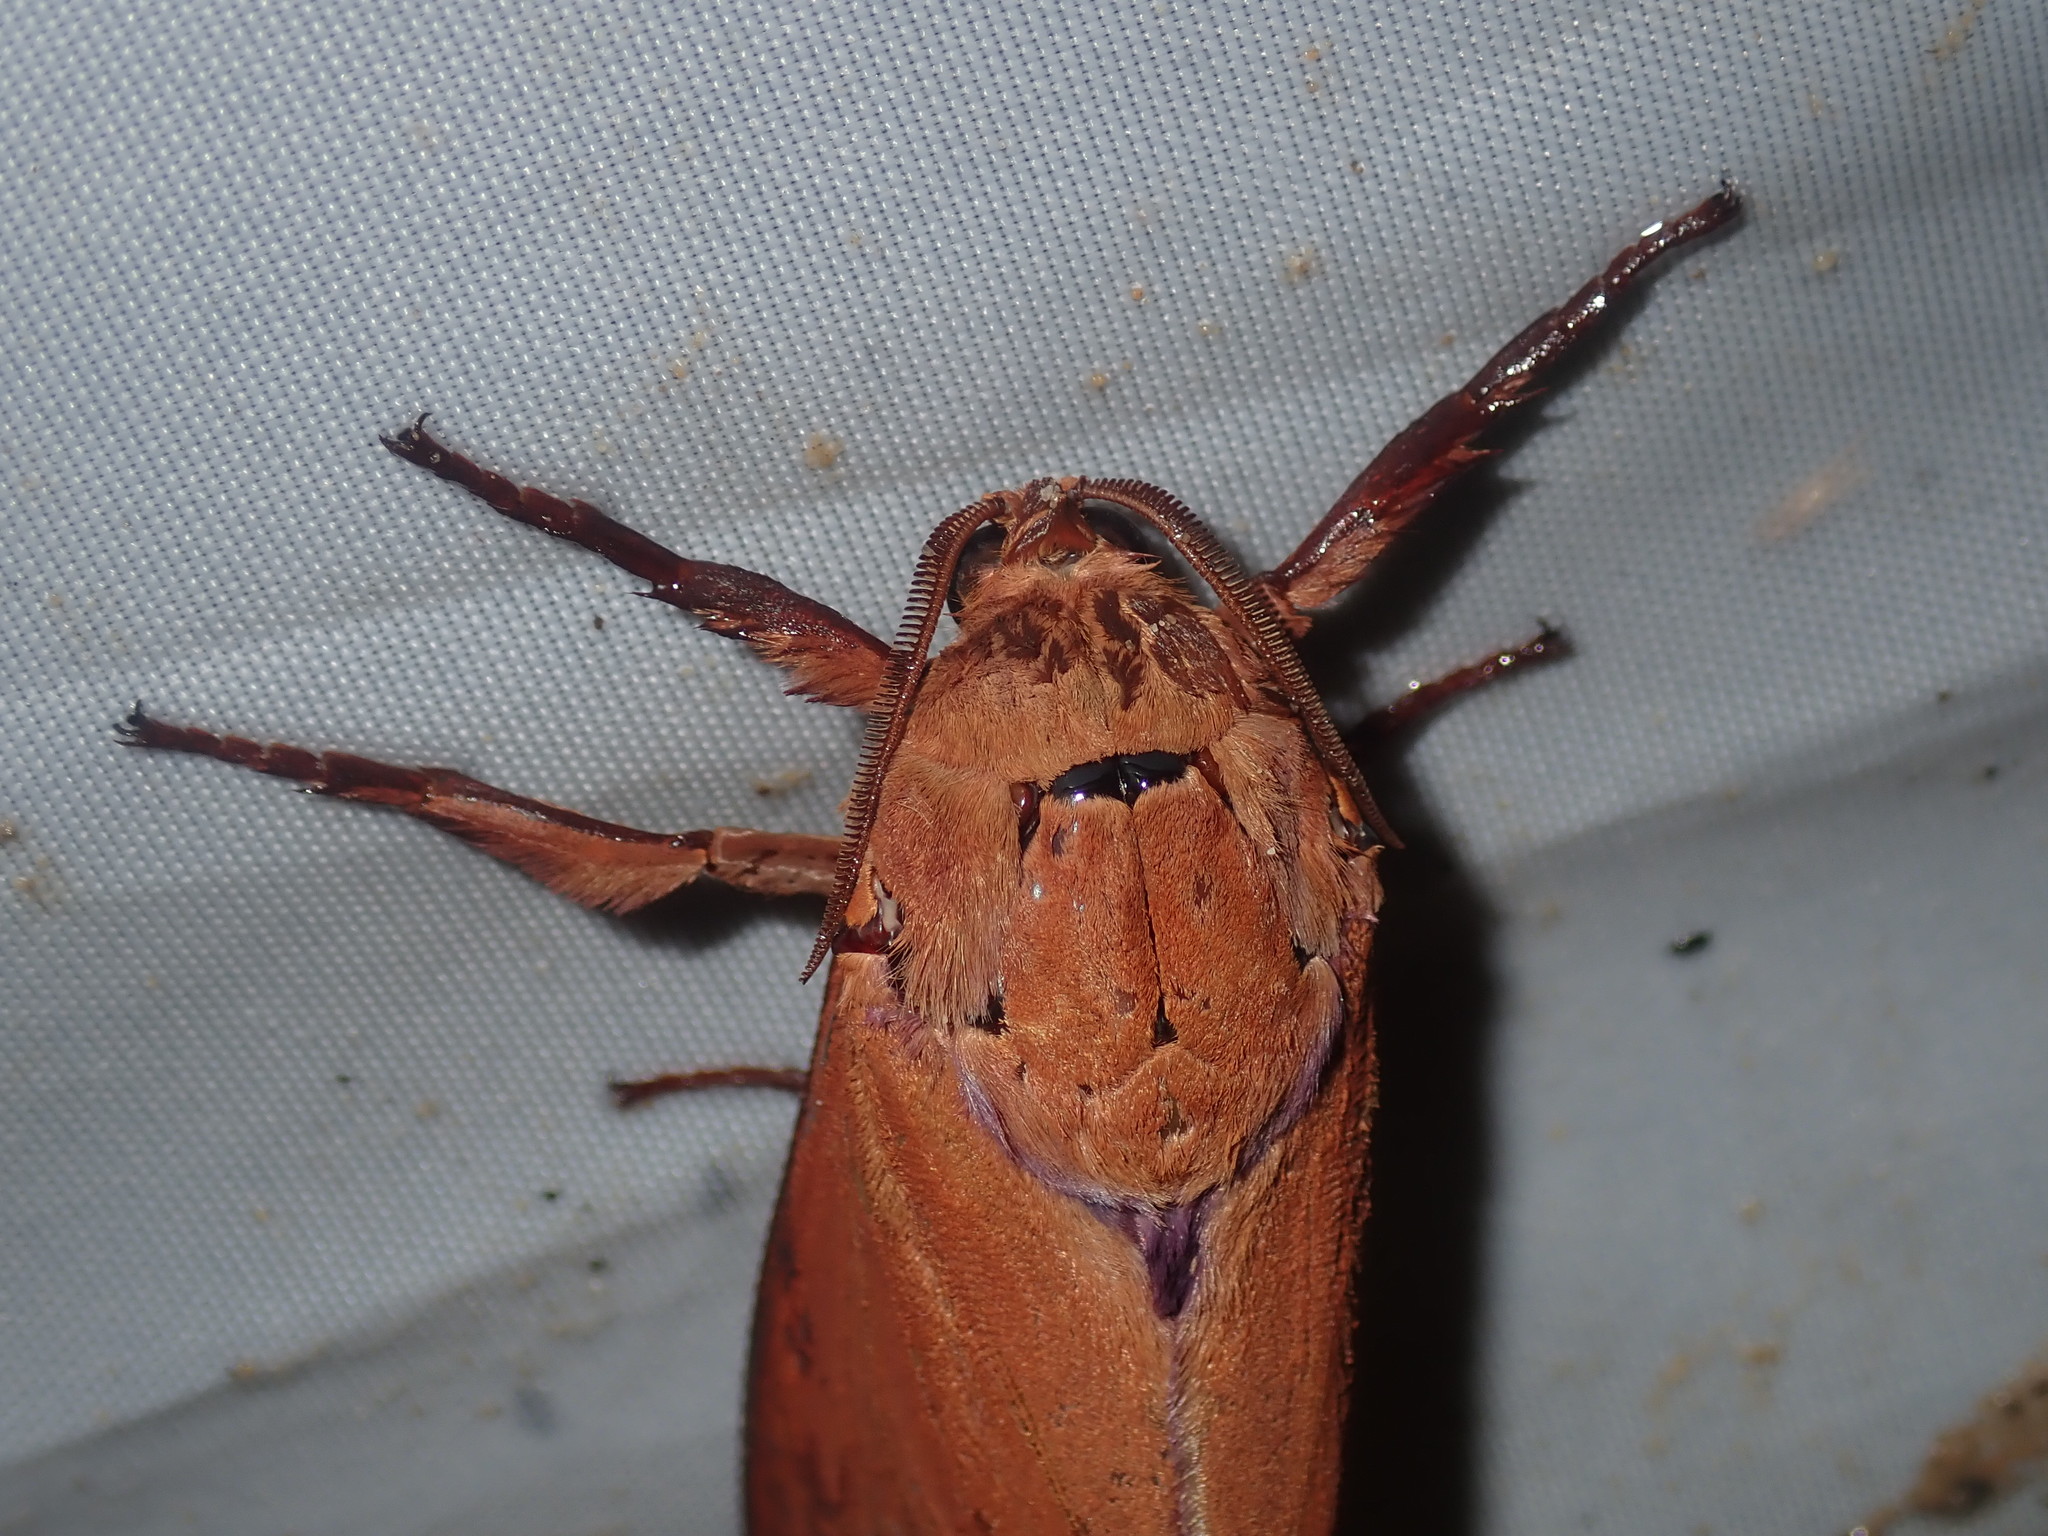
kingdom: Animalia
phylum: Arthropoda
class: Insecta
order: Lepidoptera
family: Hepialidae
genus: Abantiades
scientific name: Abantiades hyalinatus
